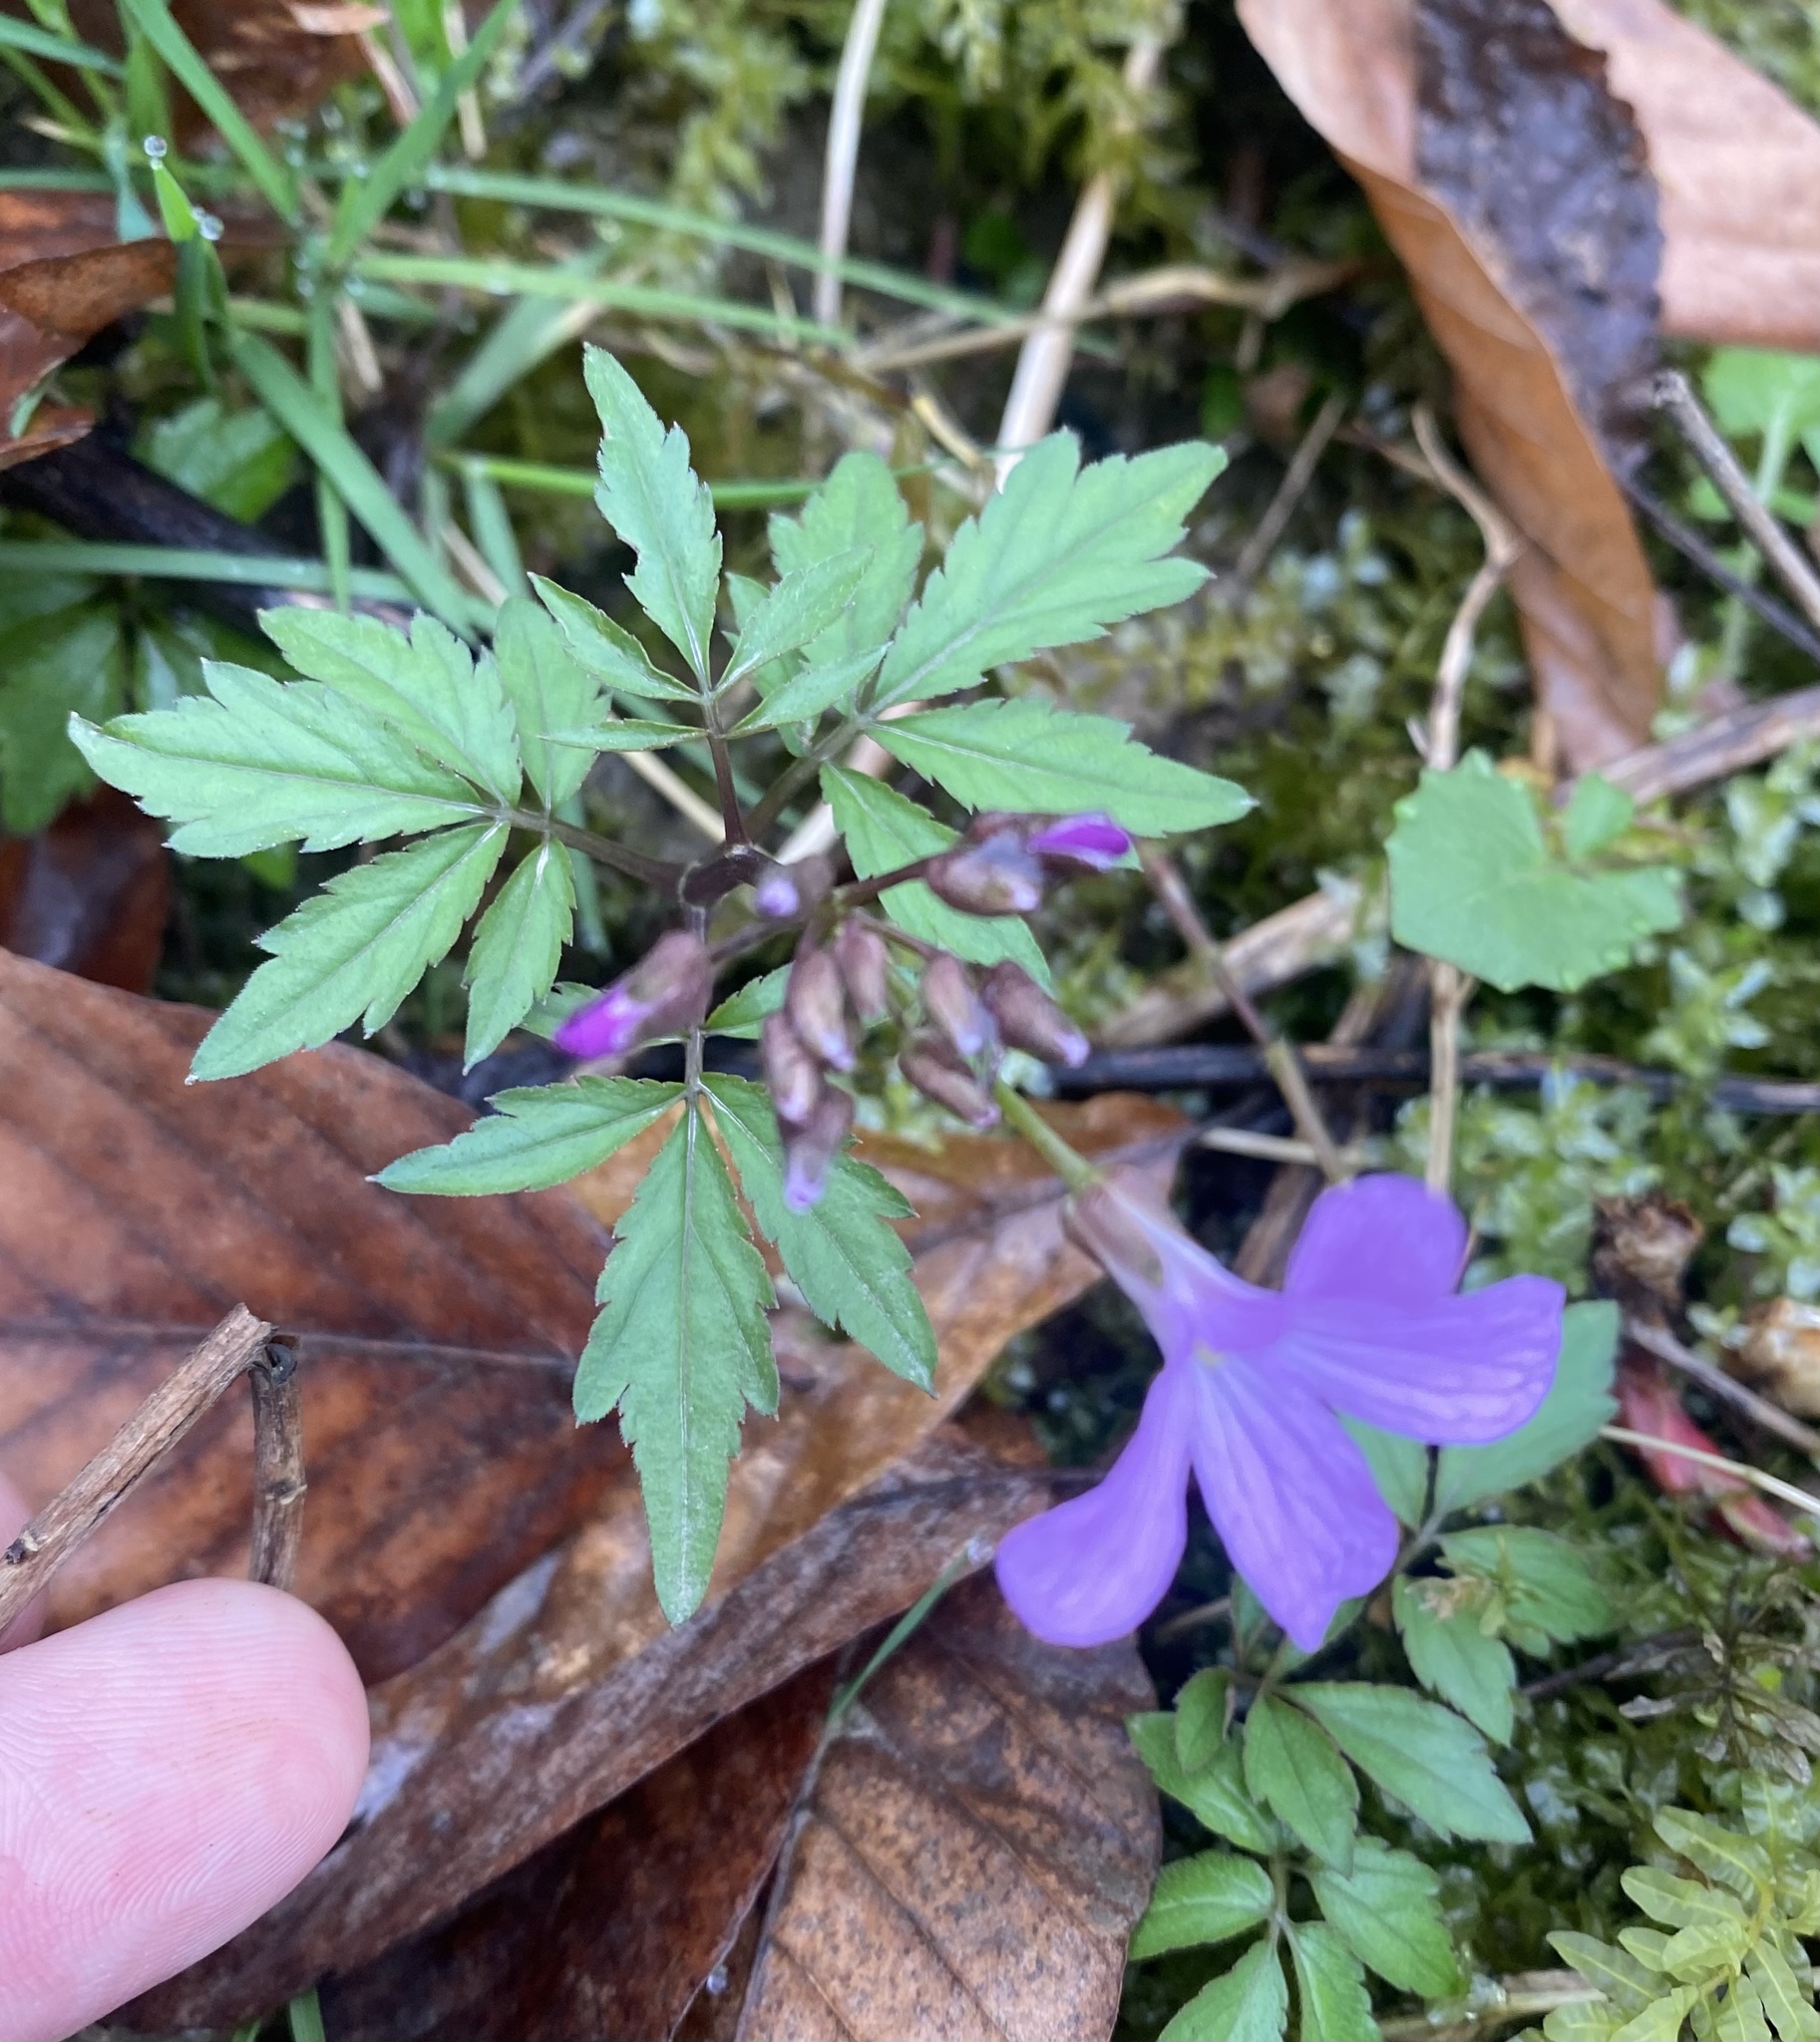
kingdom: Plantae
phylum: Tracheophyta
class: Magnoliopsida
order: Brassicales
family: Brassicaceae
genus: Cardamine
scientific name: Cardamine quinquefolia
